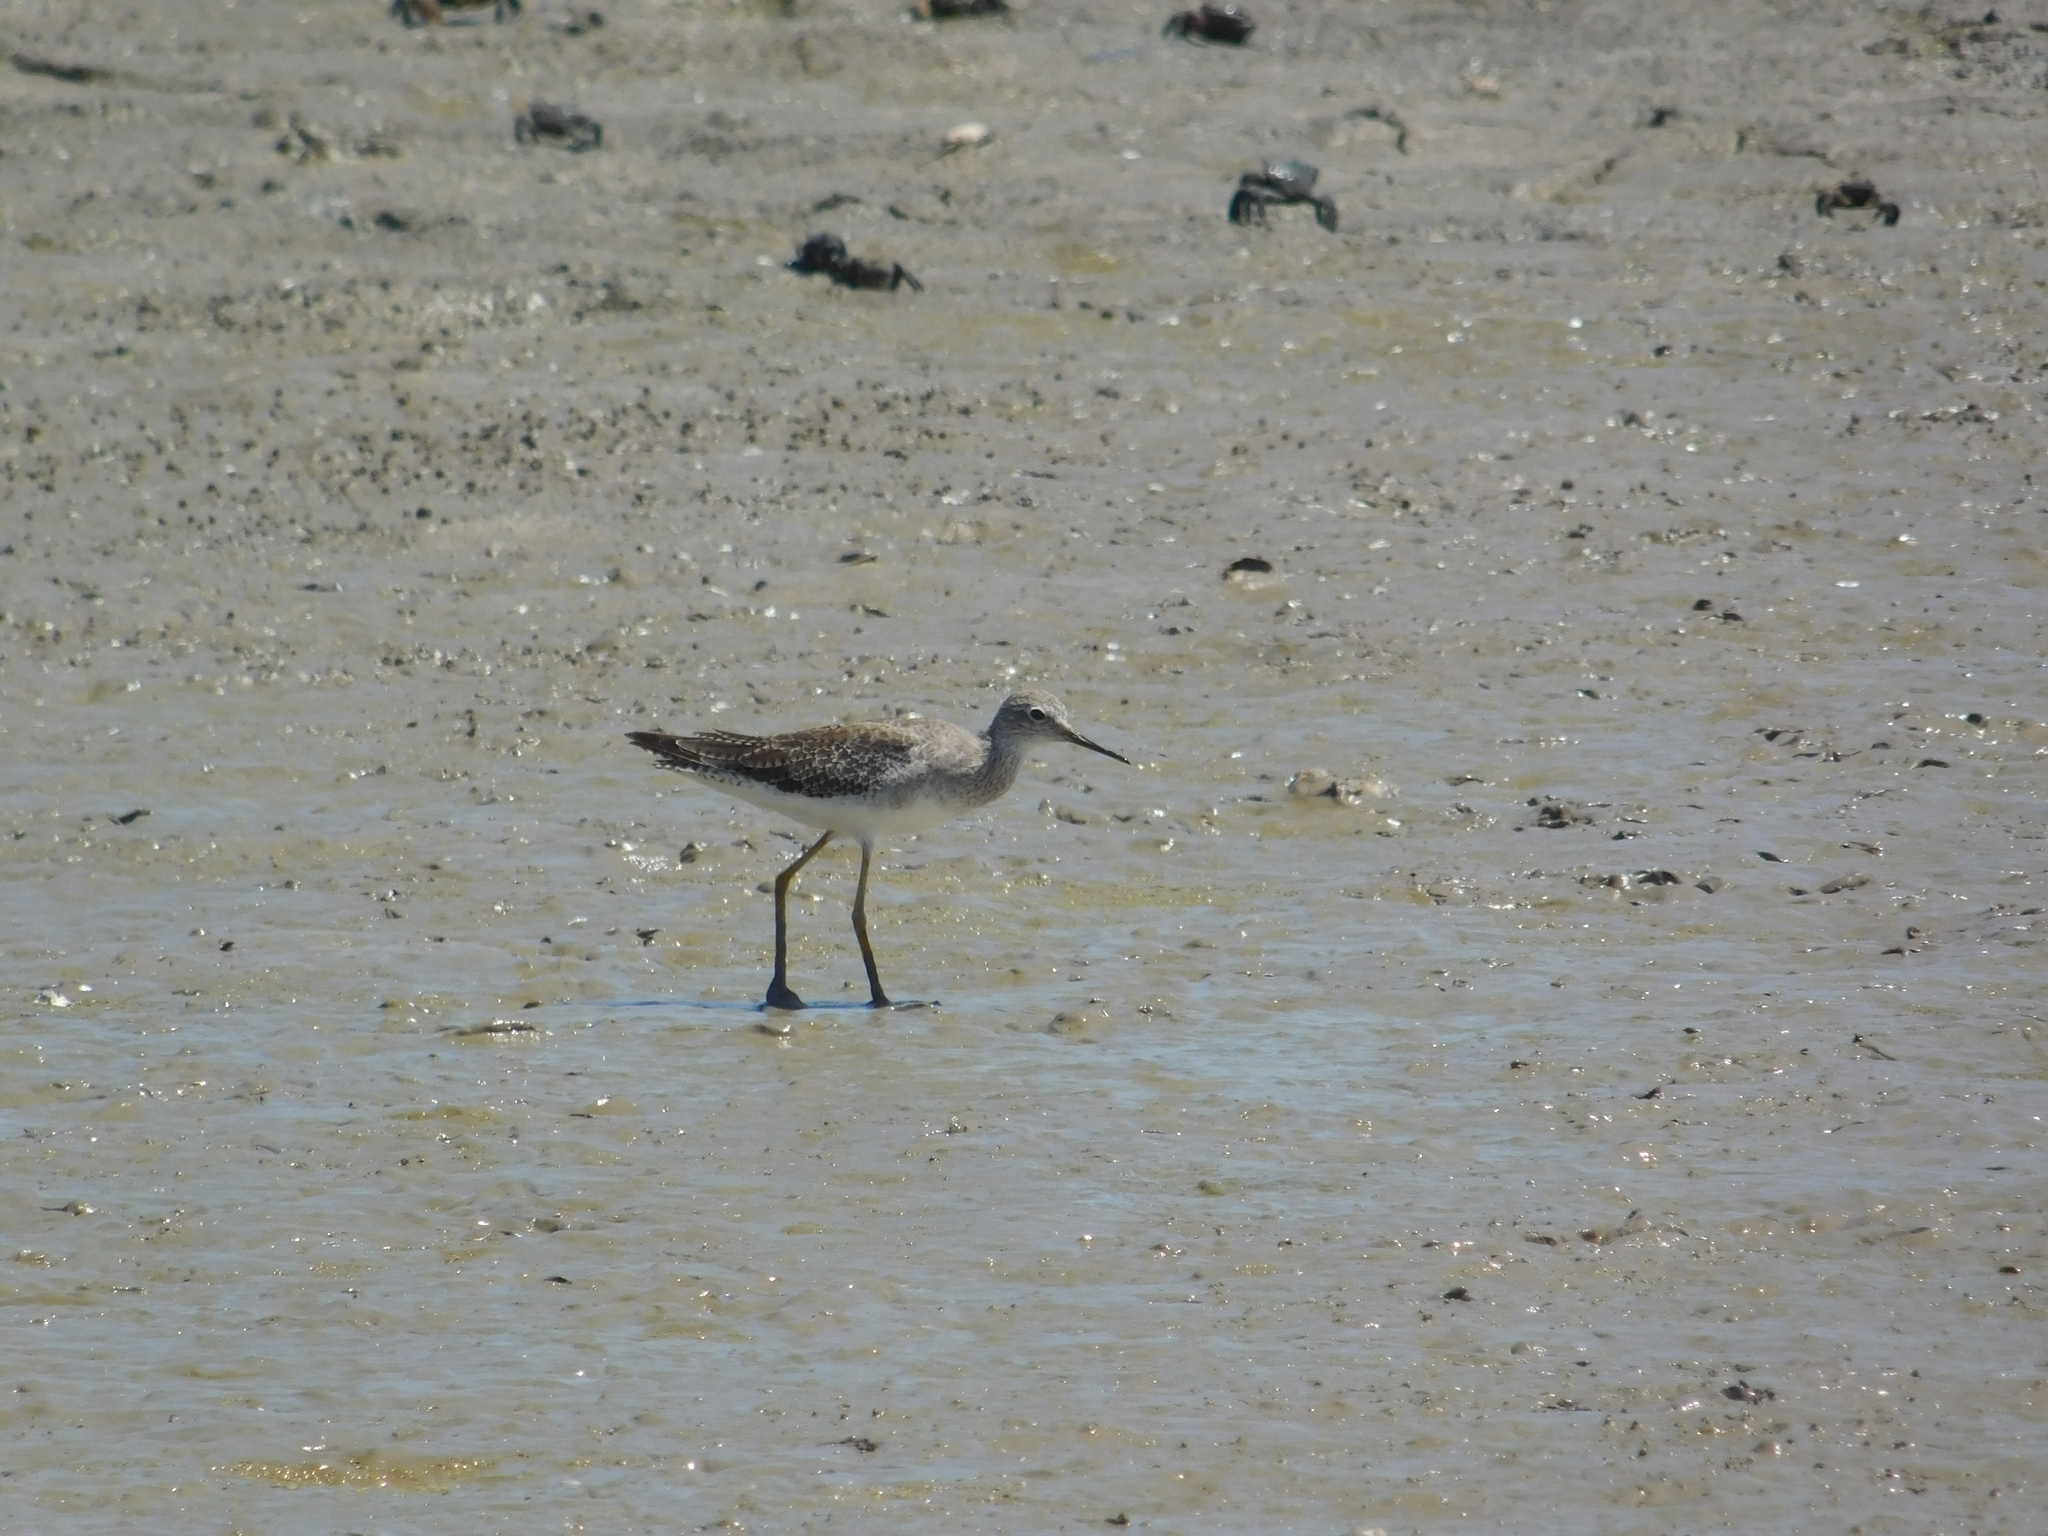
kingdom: Animalia
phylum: Chordata
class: Aves
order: Charadriiformes
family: Scolopacidae
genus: Tringa
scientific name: Tringa flavipes
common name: Lesser yellowlegs
